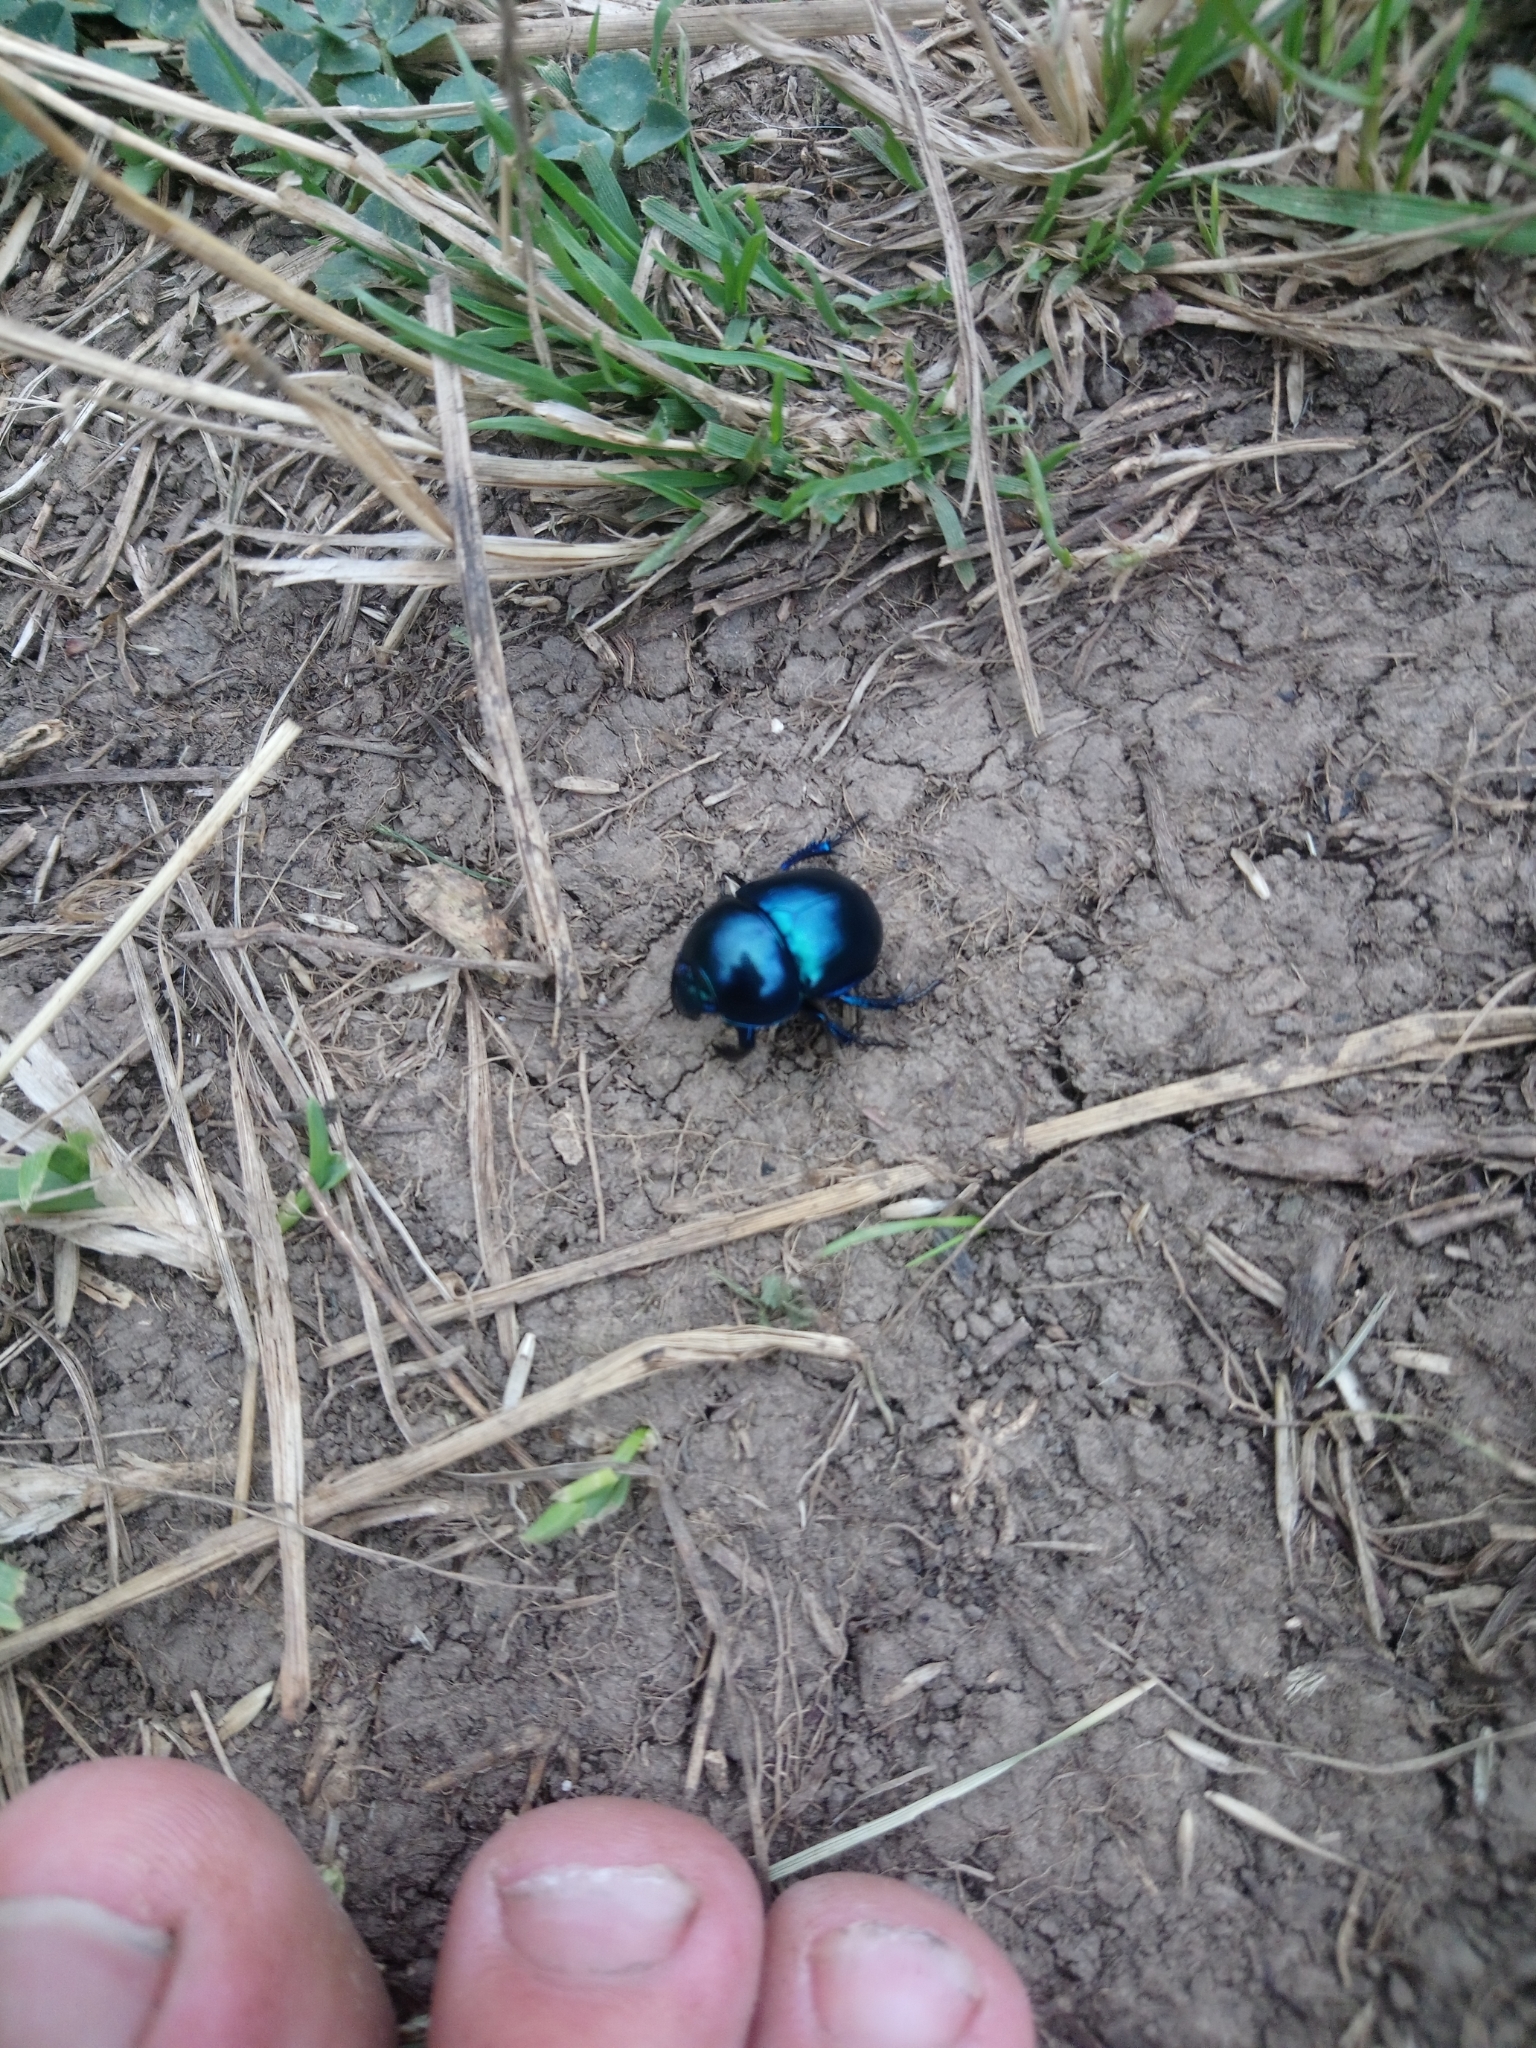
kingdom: Animalia
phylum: Arthropoda
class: Insecta
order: Coleoptera
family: Geotrupidae
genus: Trypocopris
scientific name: Trypocopris vernalis
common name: Spring dumbledor
